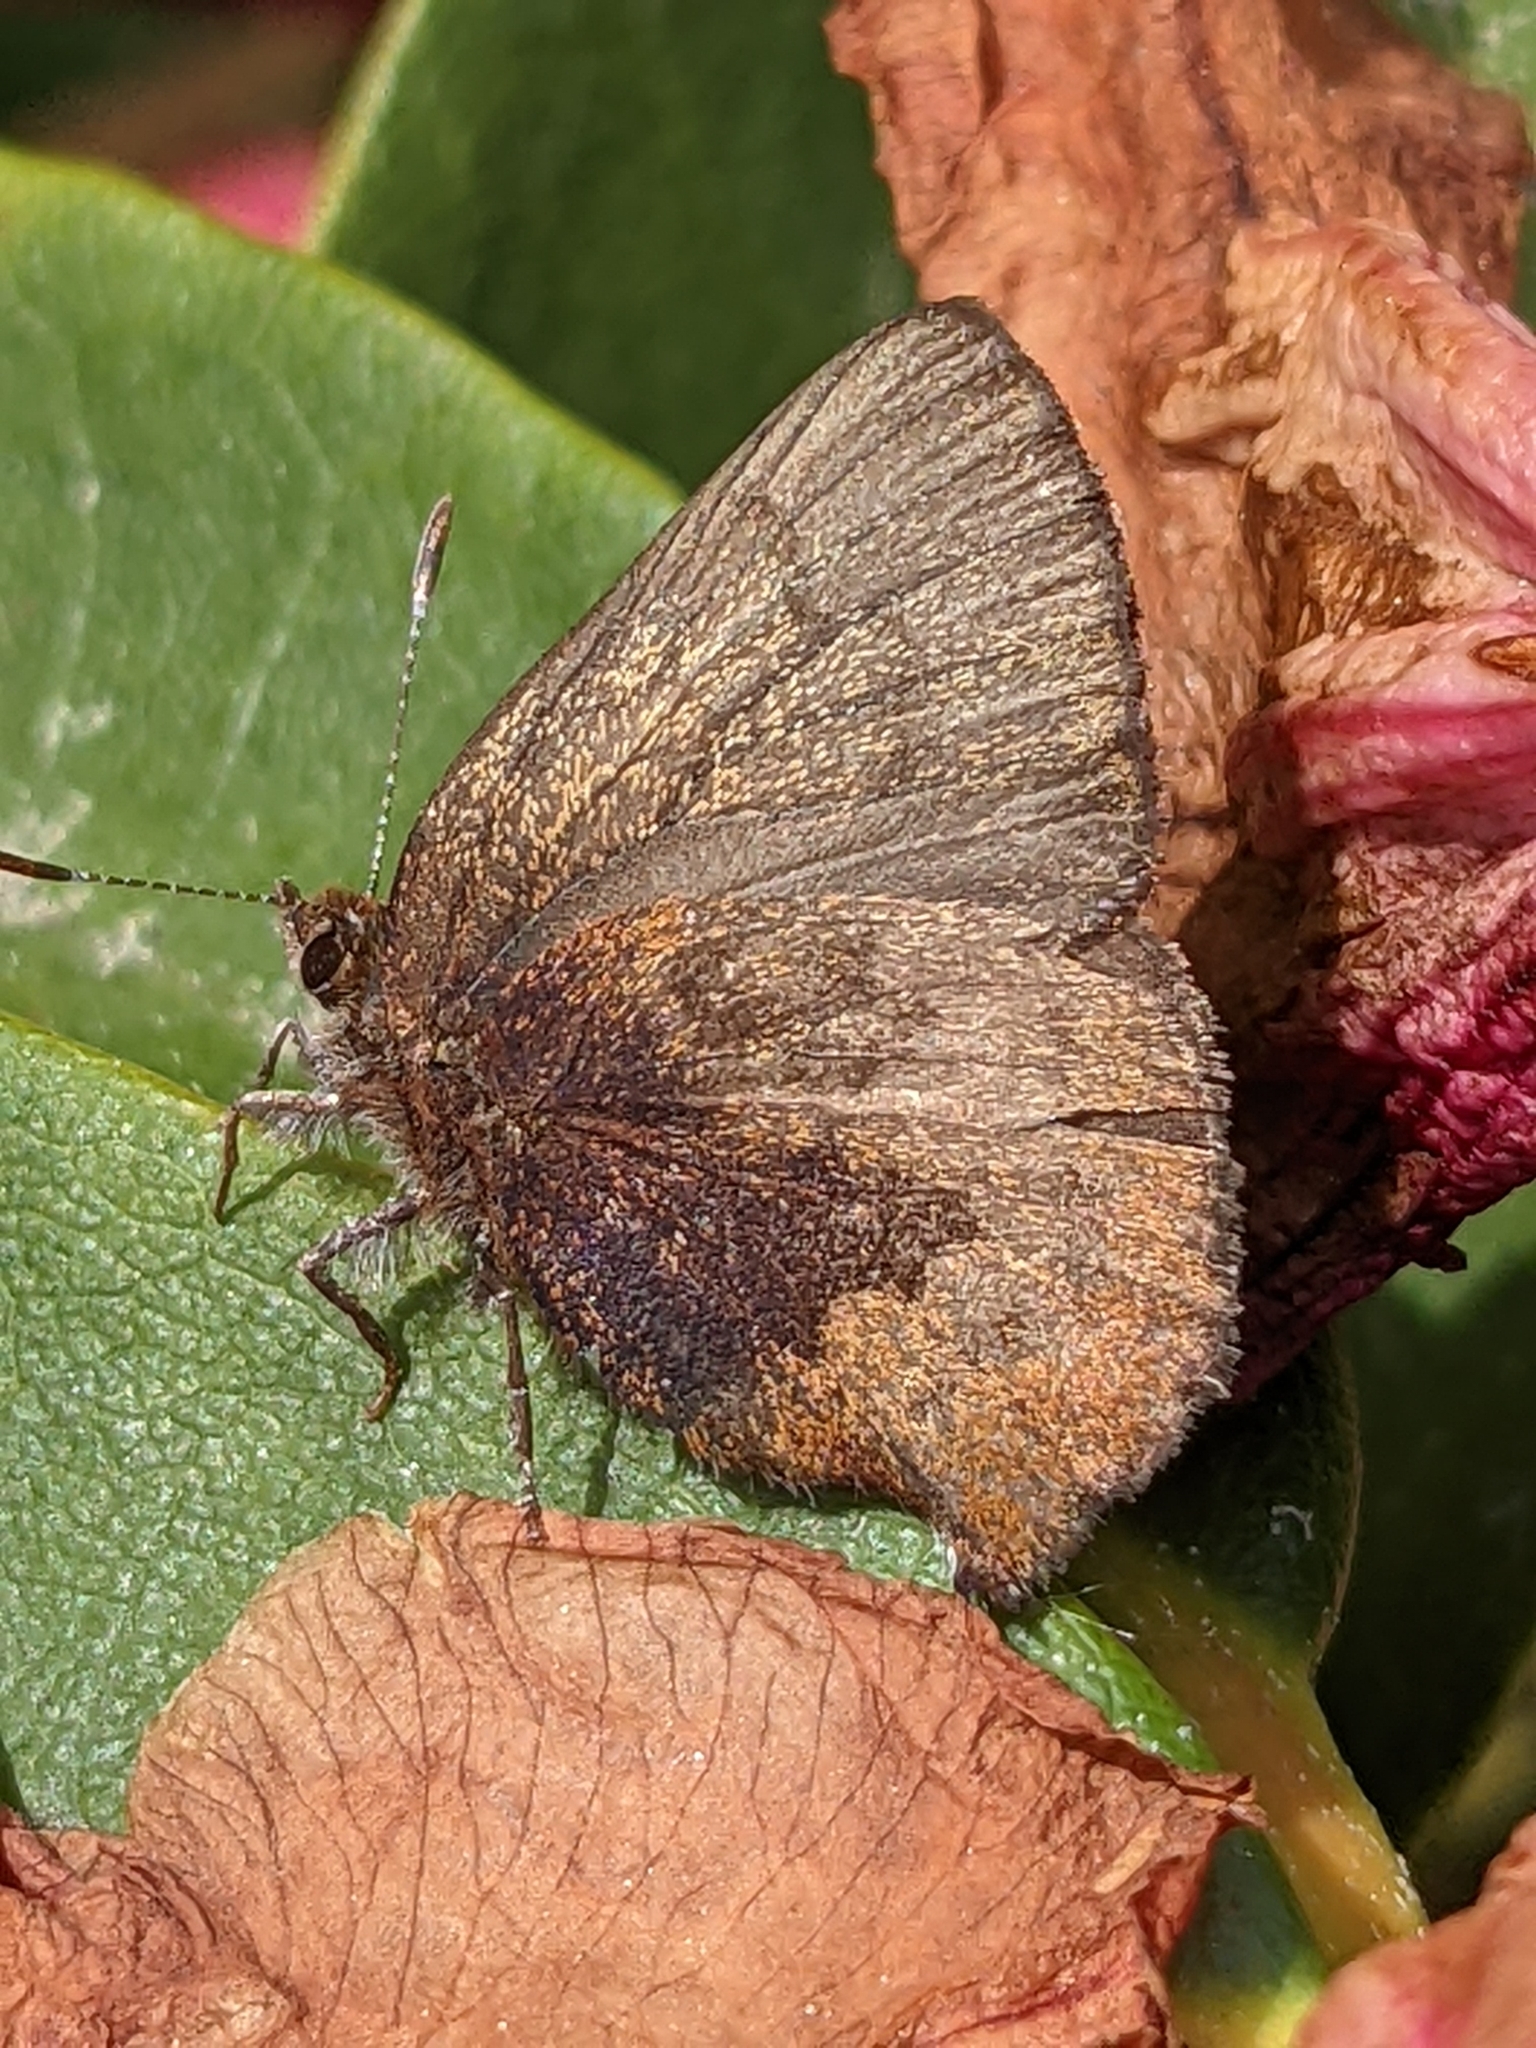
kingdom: Animalia
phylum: Arthropoda
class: Insecta
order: Lepidoptera
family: Lycaenidae
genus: Incisalia
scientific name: Incisalia irioides
